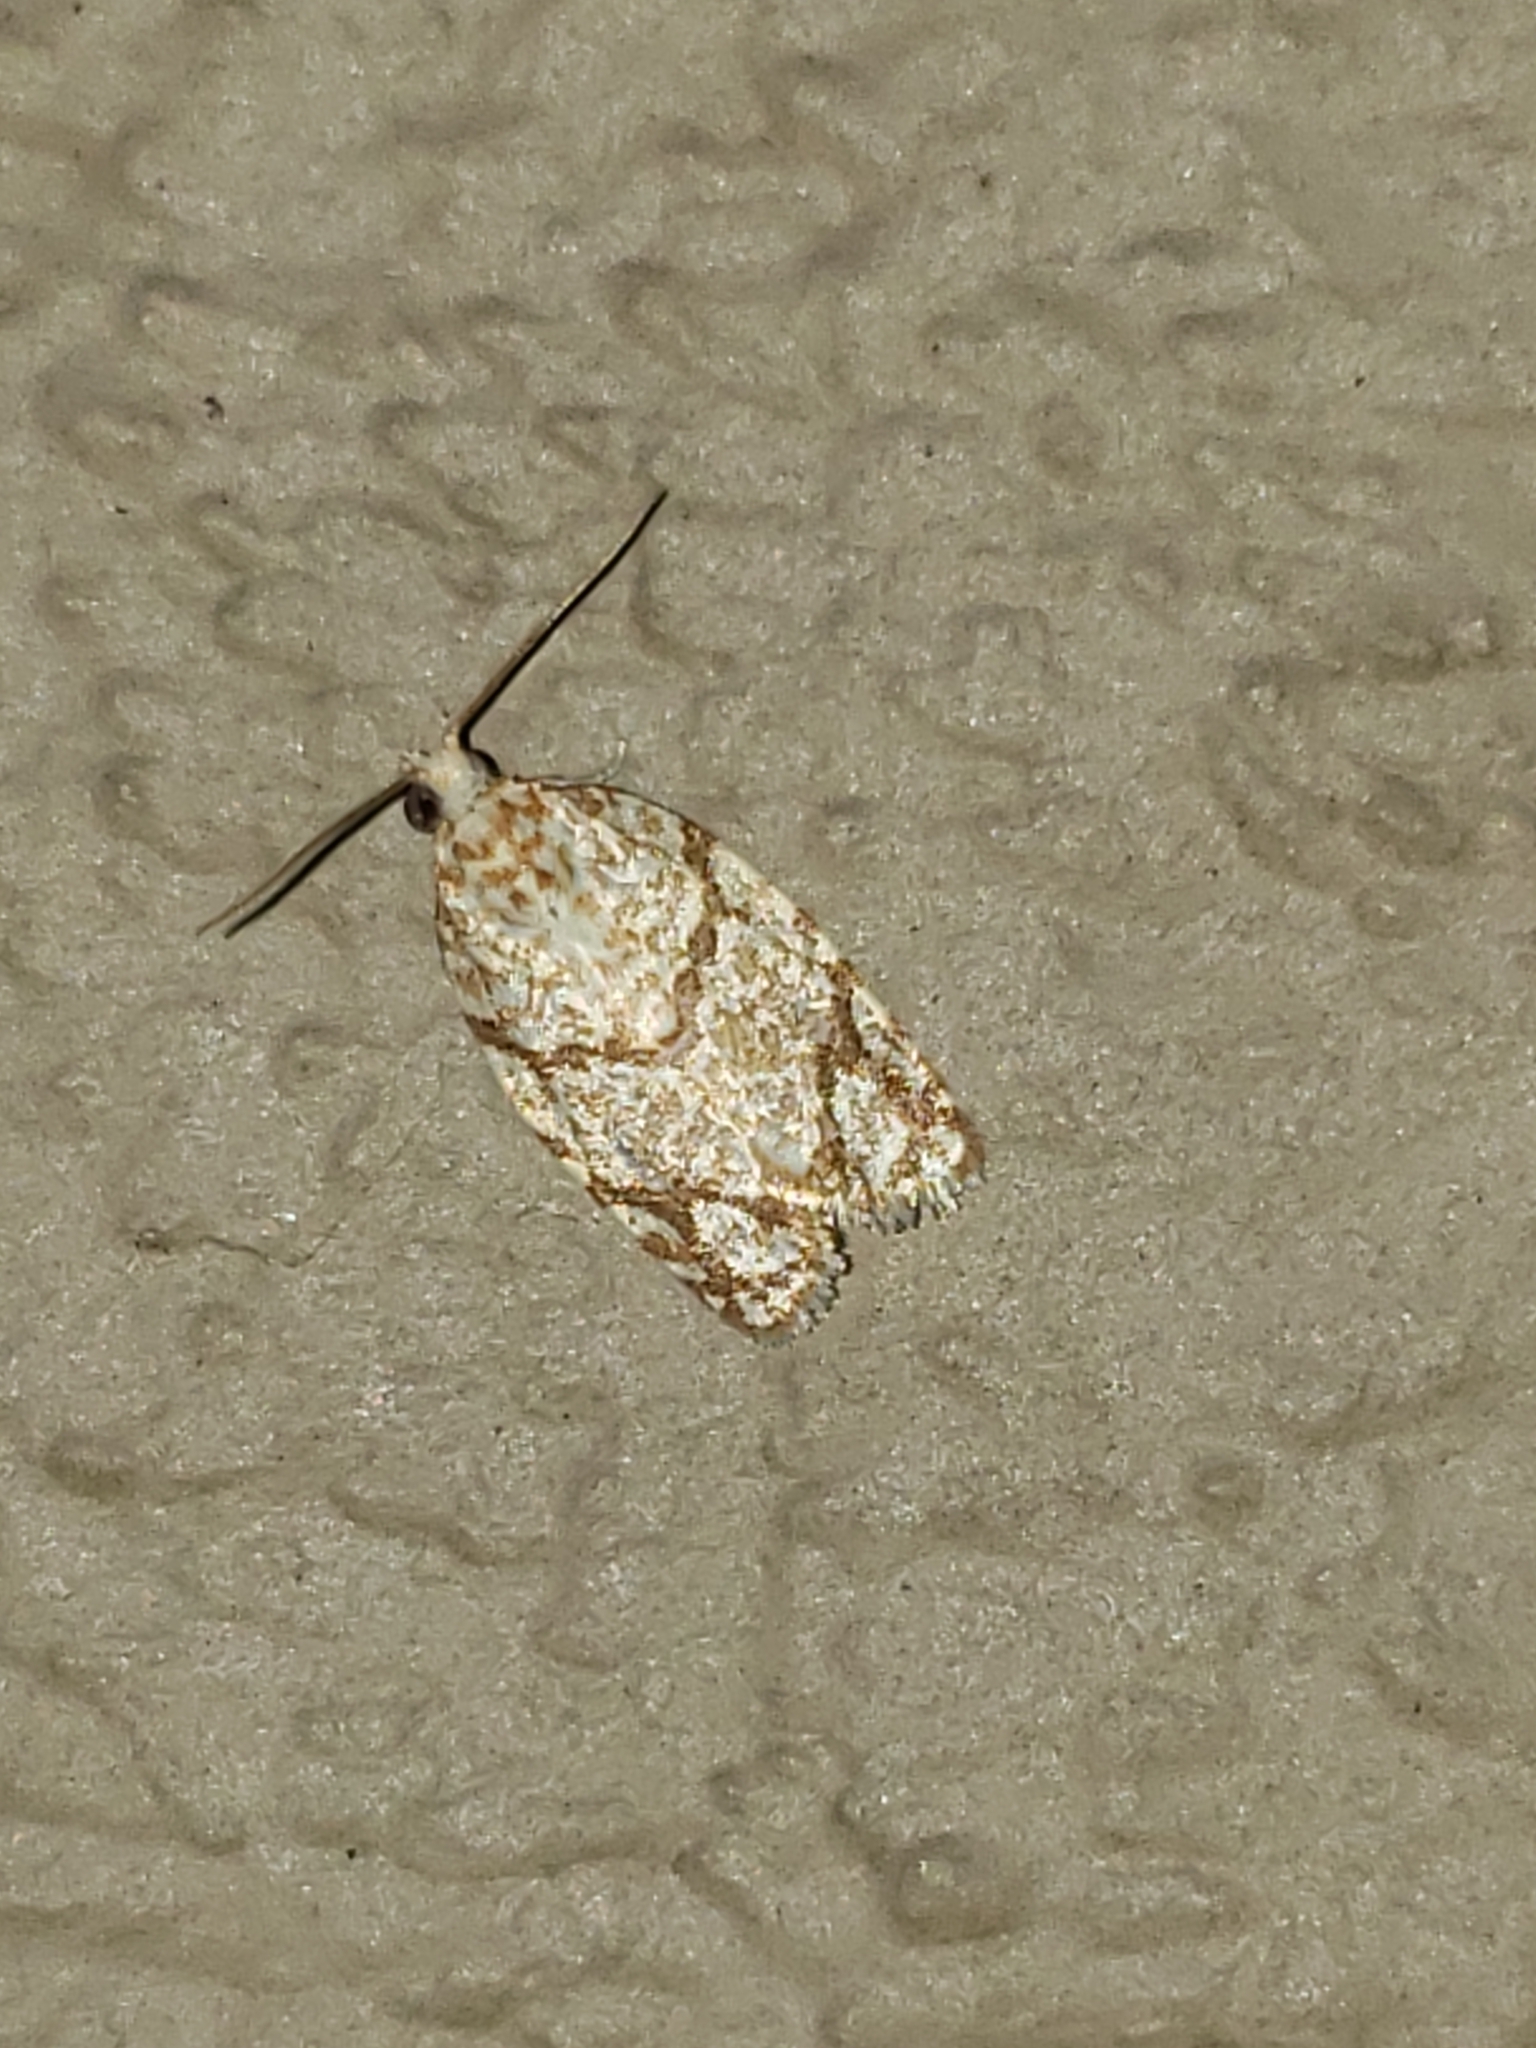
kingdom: Animalia
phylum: Arthropoda
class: Insecta
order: Lepidoptera
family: Tortricidae
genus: Argyrotaenia
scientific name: Argyrotaenia quercifoliana
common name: Yellow-winged oak leafroller moth
